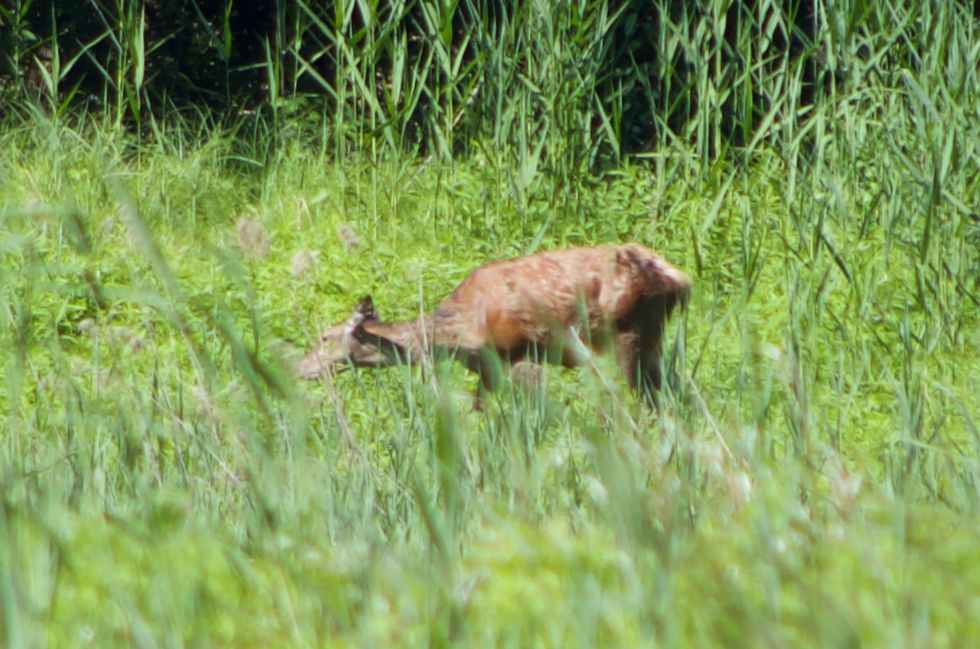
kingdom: Animalia
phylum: Chordata
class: Mammalia
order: Artiodactyla
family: Cervidae
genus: Cervus
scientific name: Cervus elaphus
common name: Red deer
